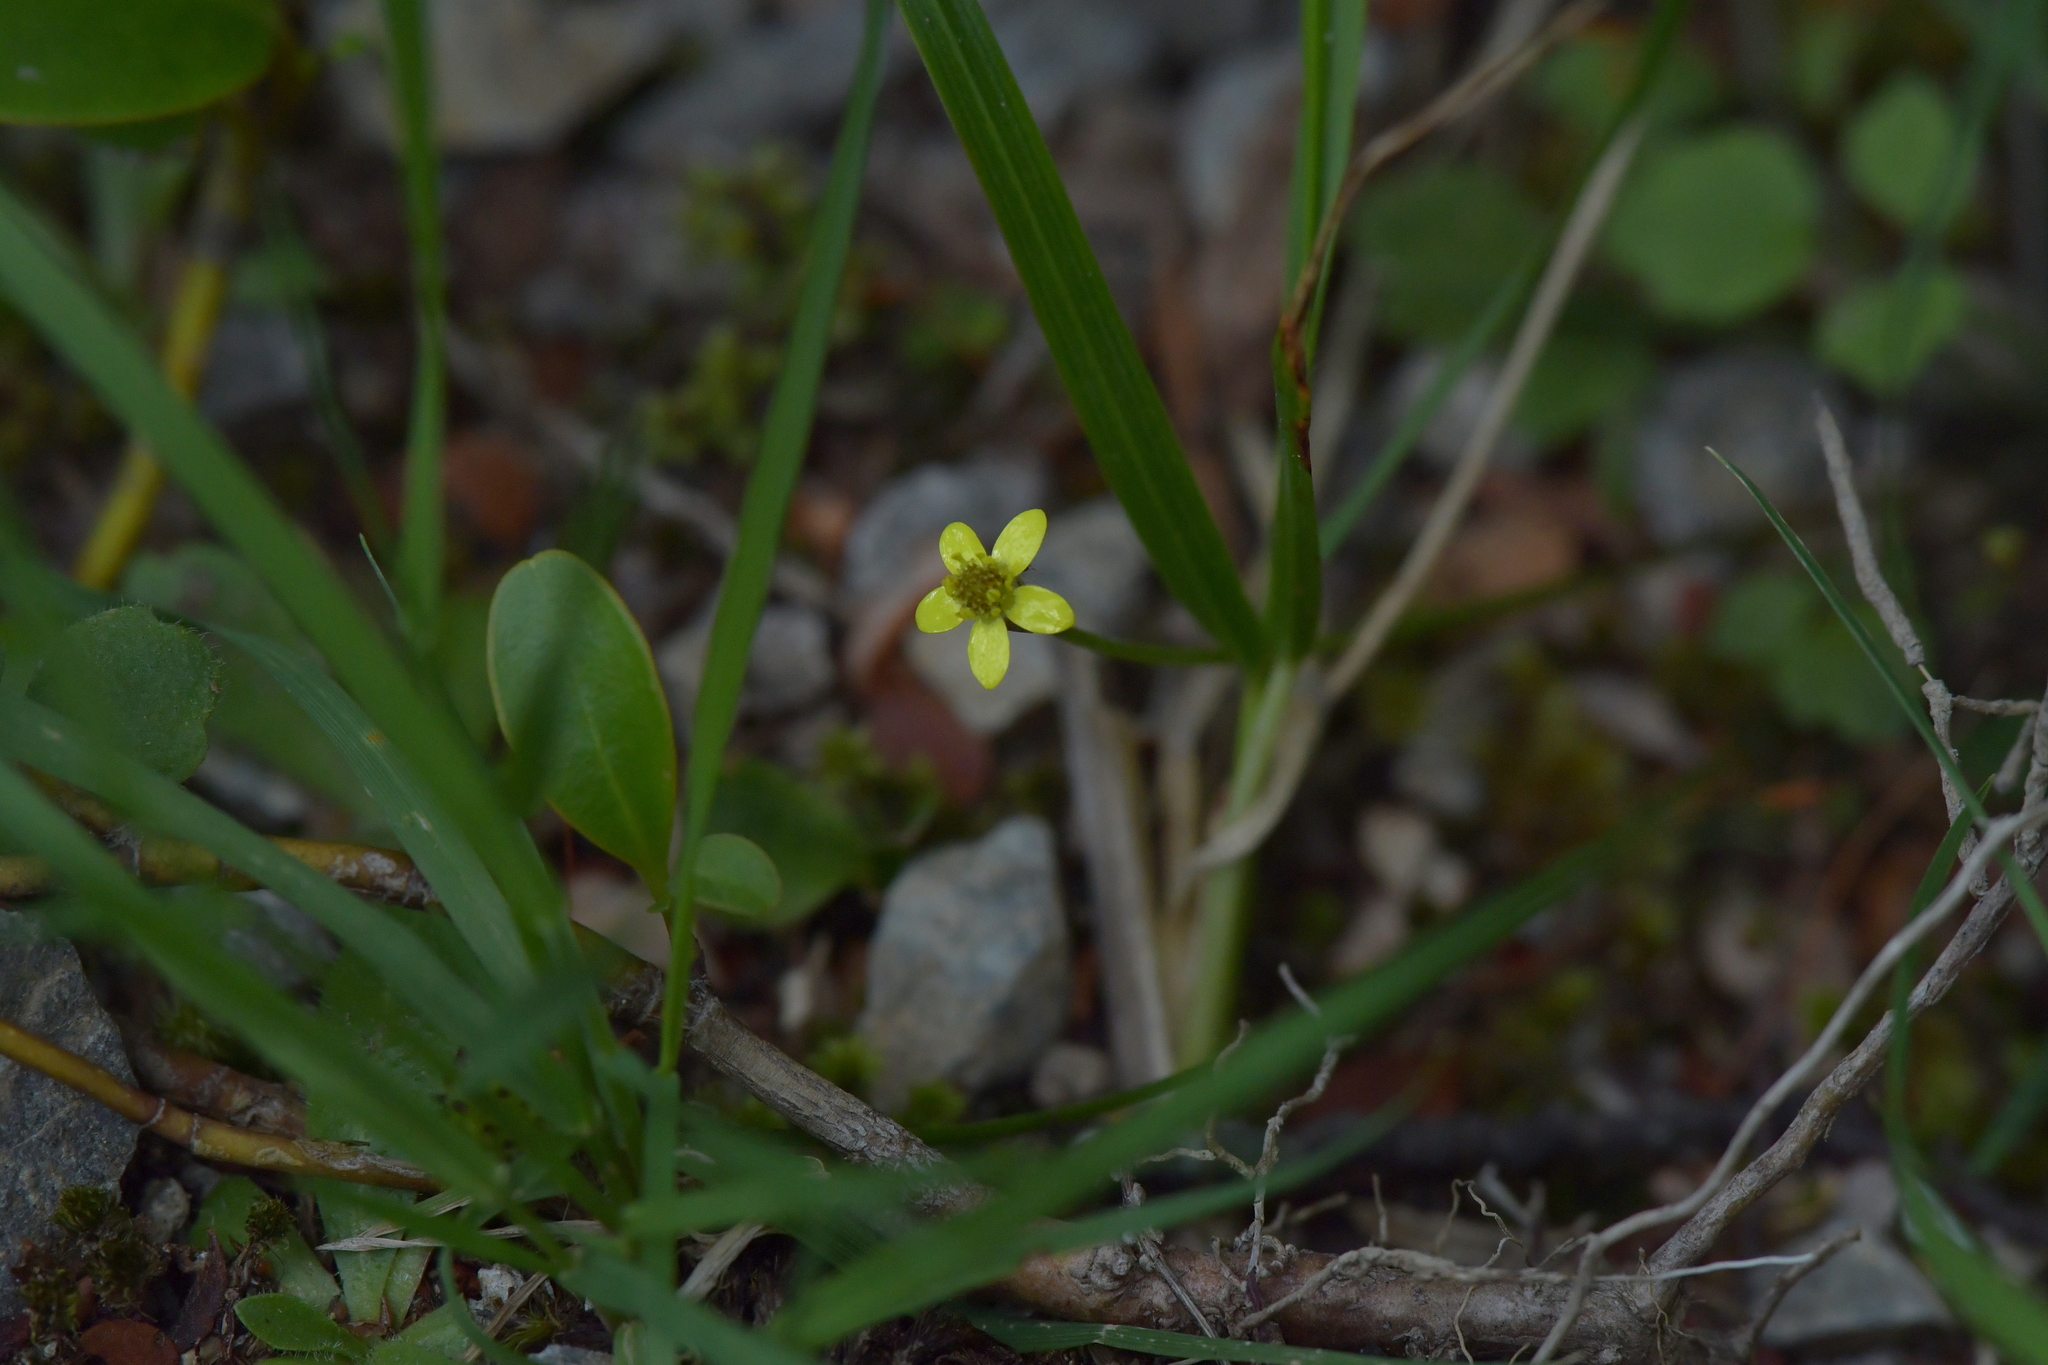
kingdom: Plantae
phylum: Tracheophyta
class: Magnoliopsida
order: Ranunculales
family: Ranunculaceae
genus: Ranunculus
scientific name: Ranunculus reflexus
